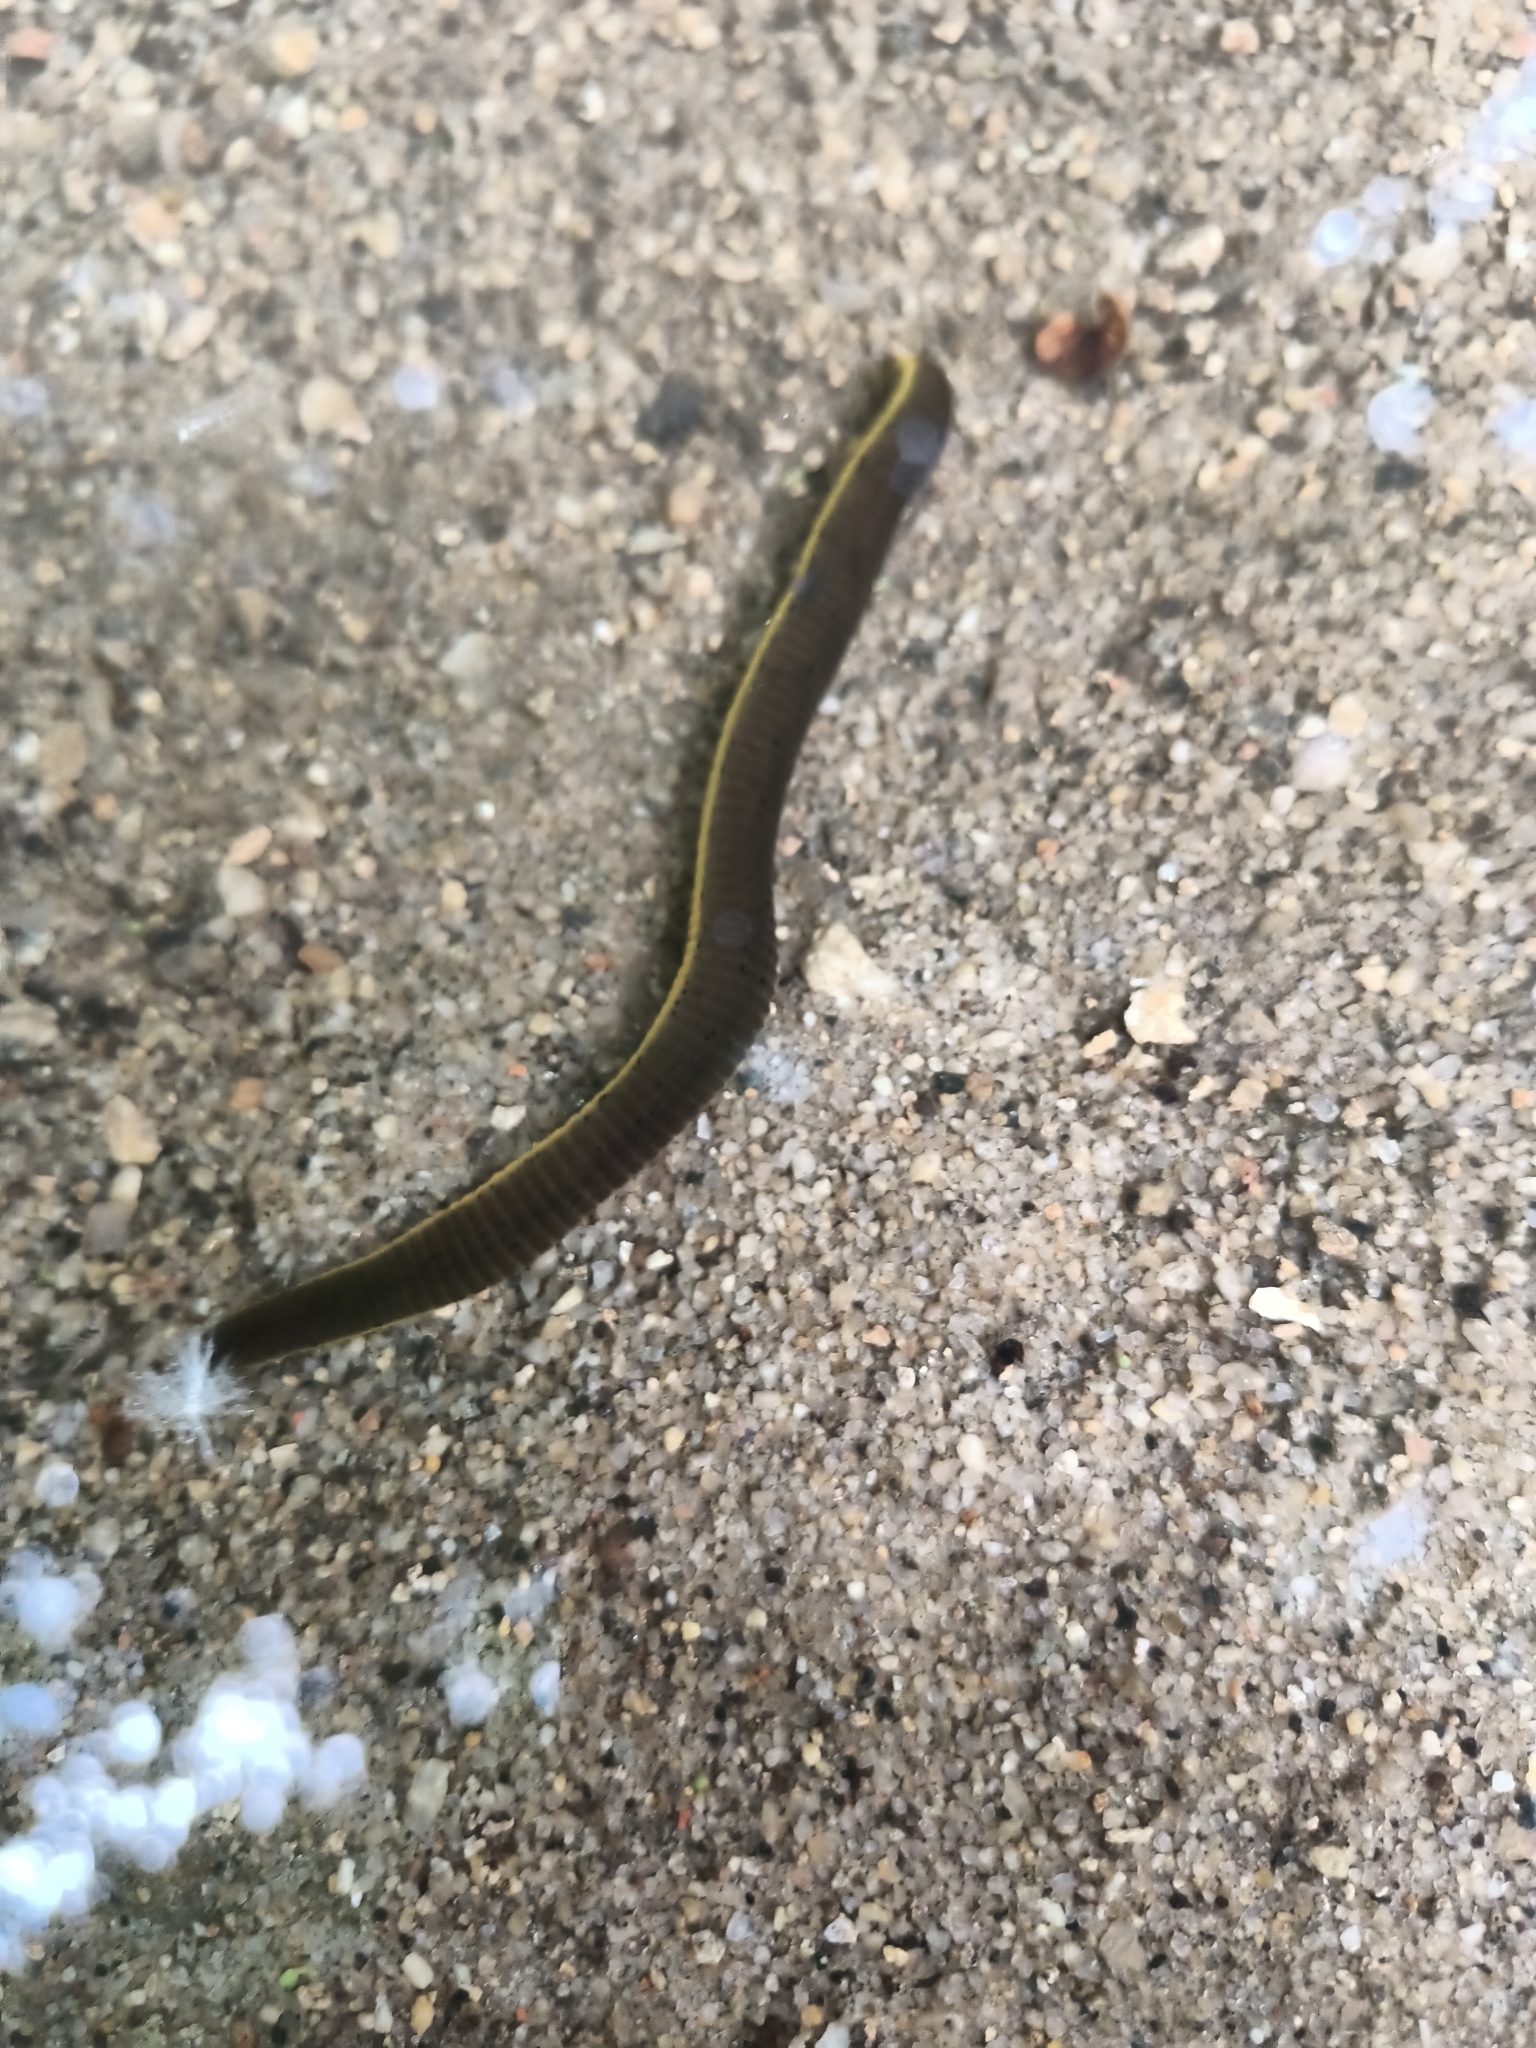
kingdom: Animalia
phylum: Annelida
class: Clitellata
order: Arhynchobdellida
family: Haemopidae
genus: Haemopis
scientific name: Haemopis sanguisuga
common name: Horse leech
